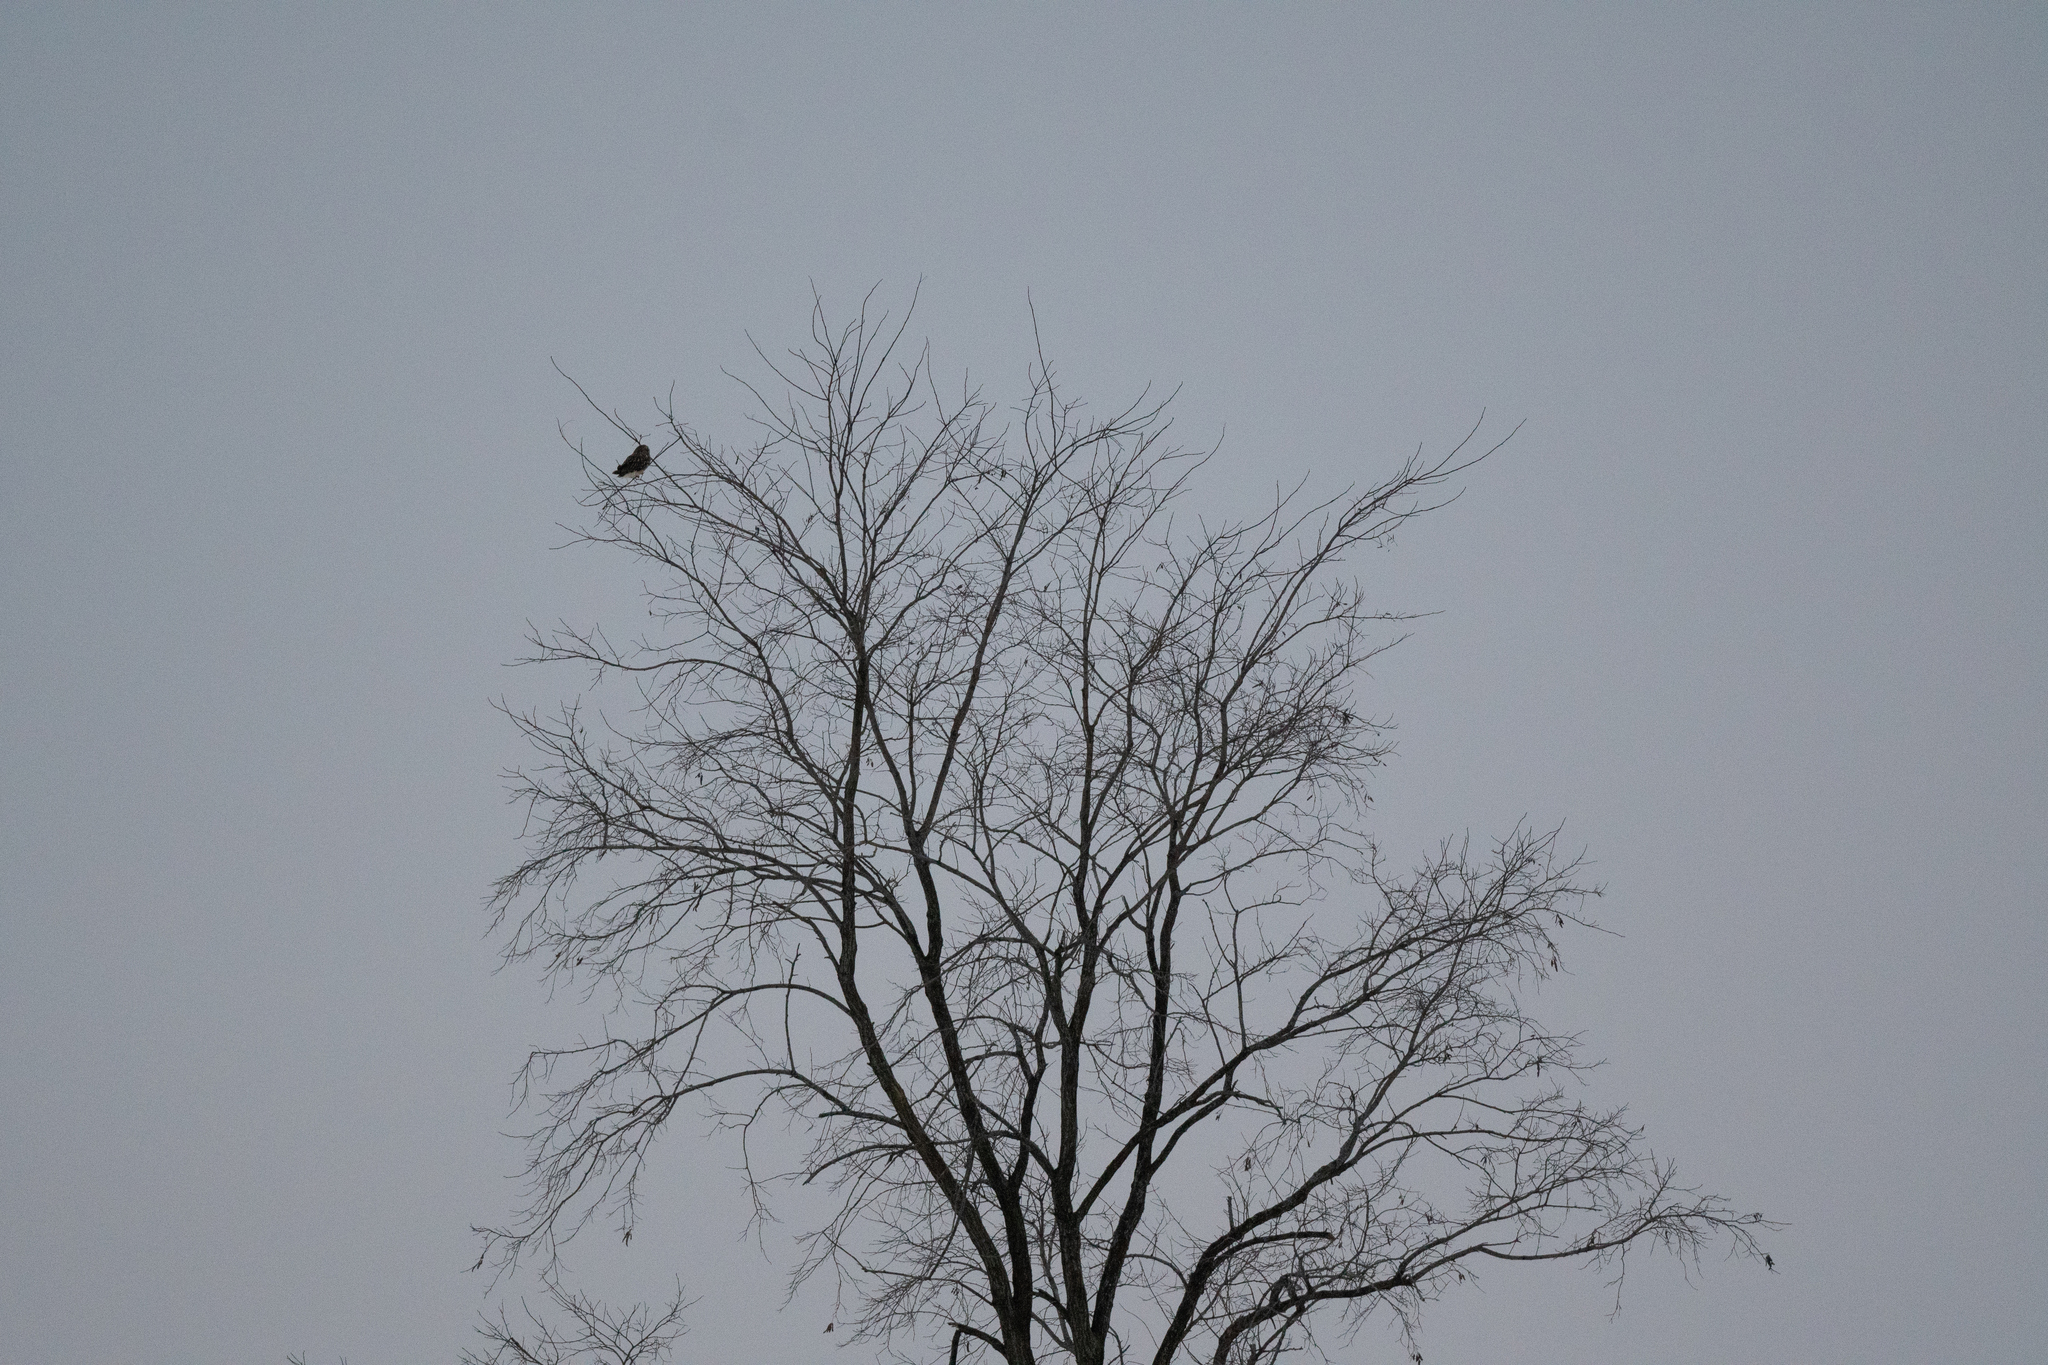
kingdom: Animalia
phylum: Chordata
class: Aves
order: Strigiformes
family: Strigidae
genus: Asio
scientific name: Asio flammeus
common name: Short-eared owl
